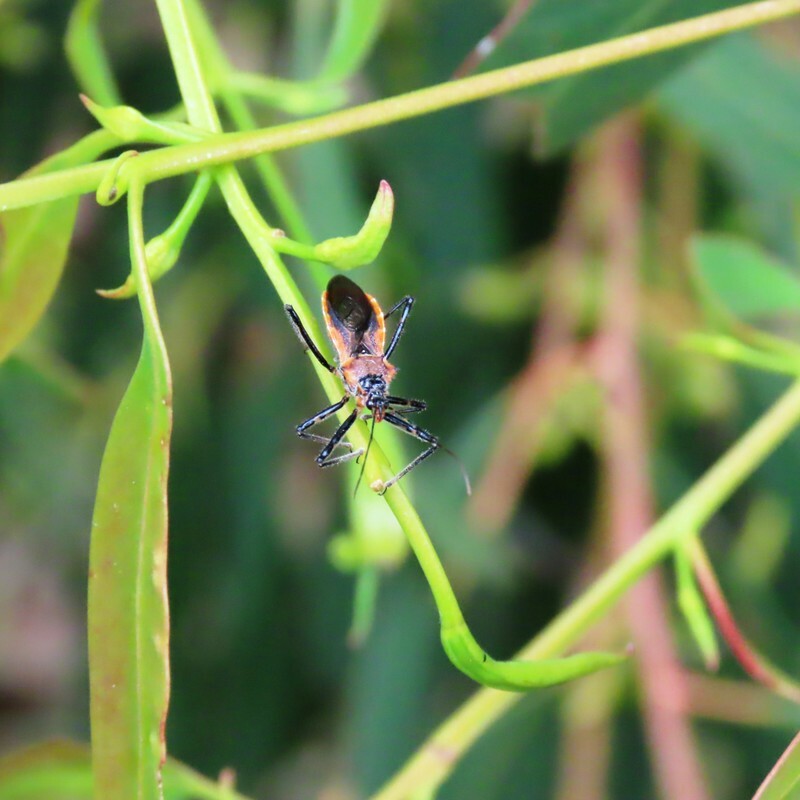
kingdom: Animalia
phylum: Arthropoda
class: Insecta
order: Hemiptera
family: Reduviidae
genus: Gminatus
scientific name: Gminatus australis
